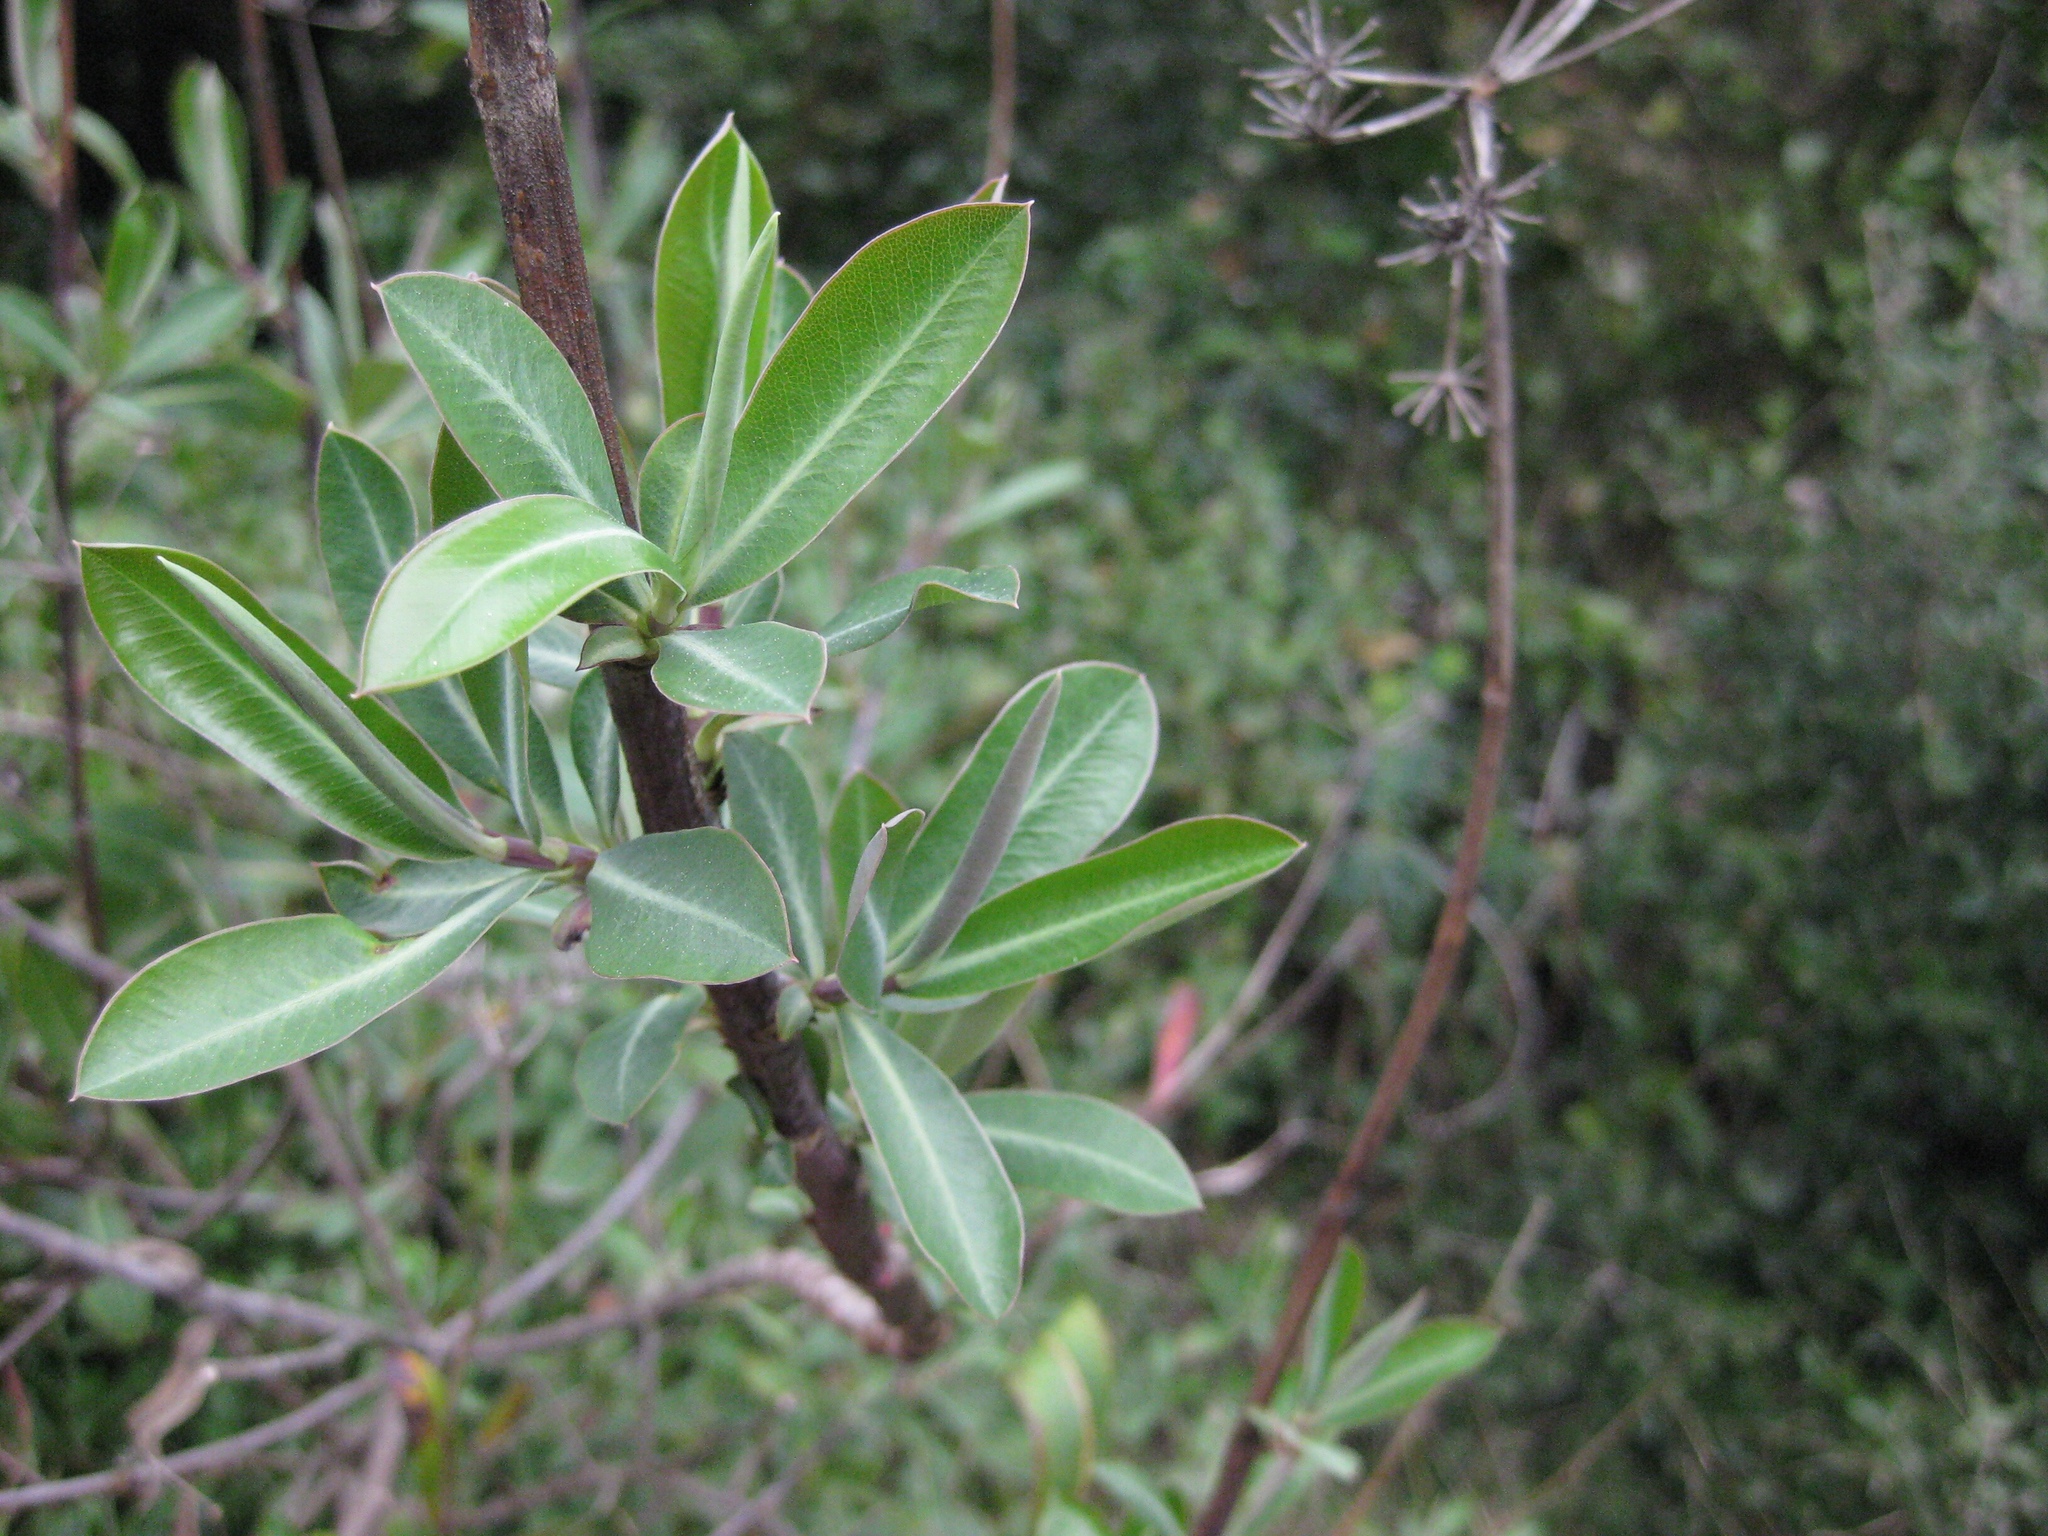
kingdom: Plantae
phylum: Tracheophyta
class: Magnoliopsida
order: Apiales
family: Apiaceae
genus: Bupleurum
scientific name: Bupleurum fruticosum
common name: Shrubby hare's-ear
